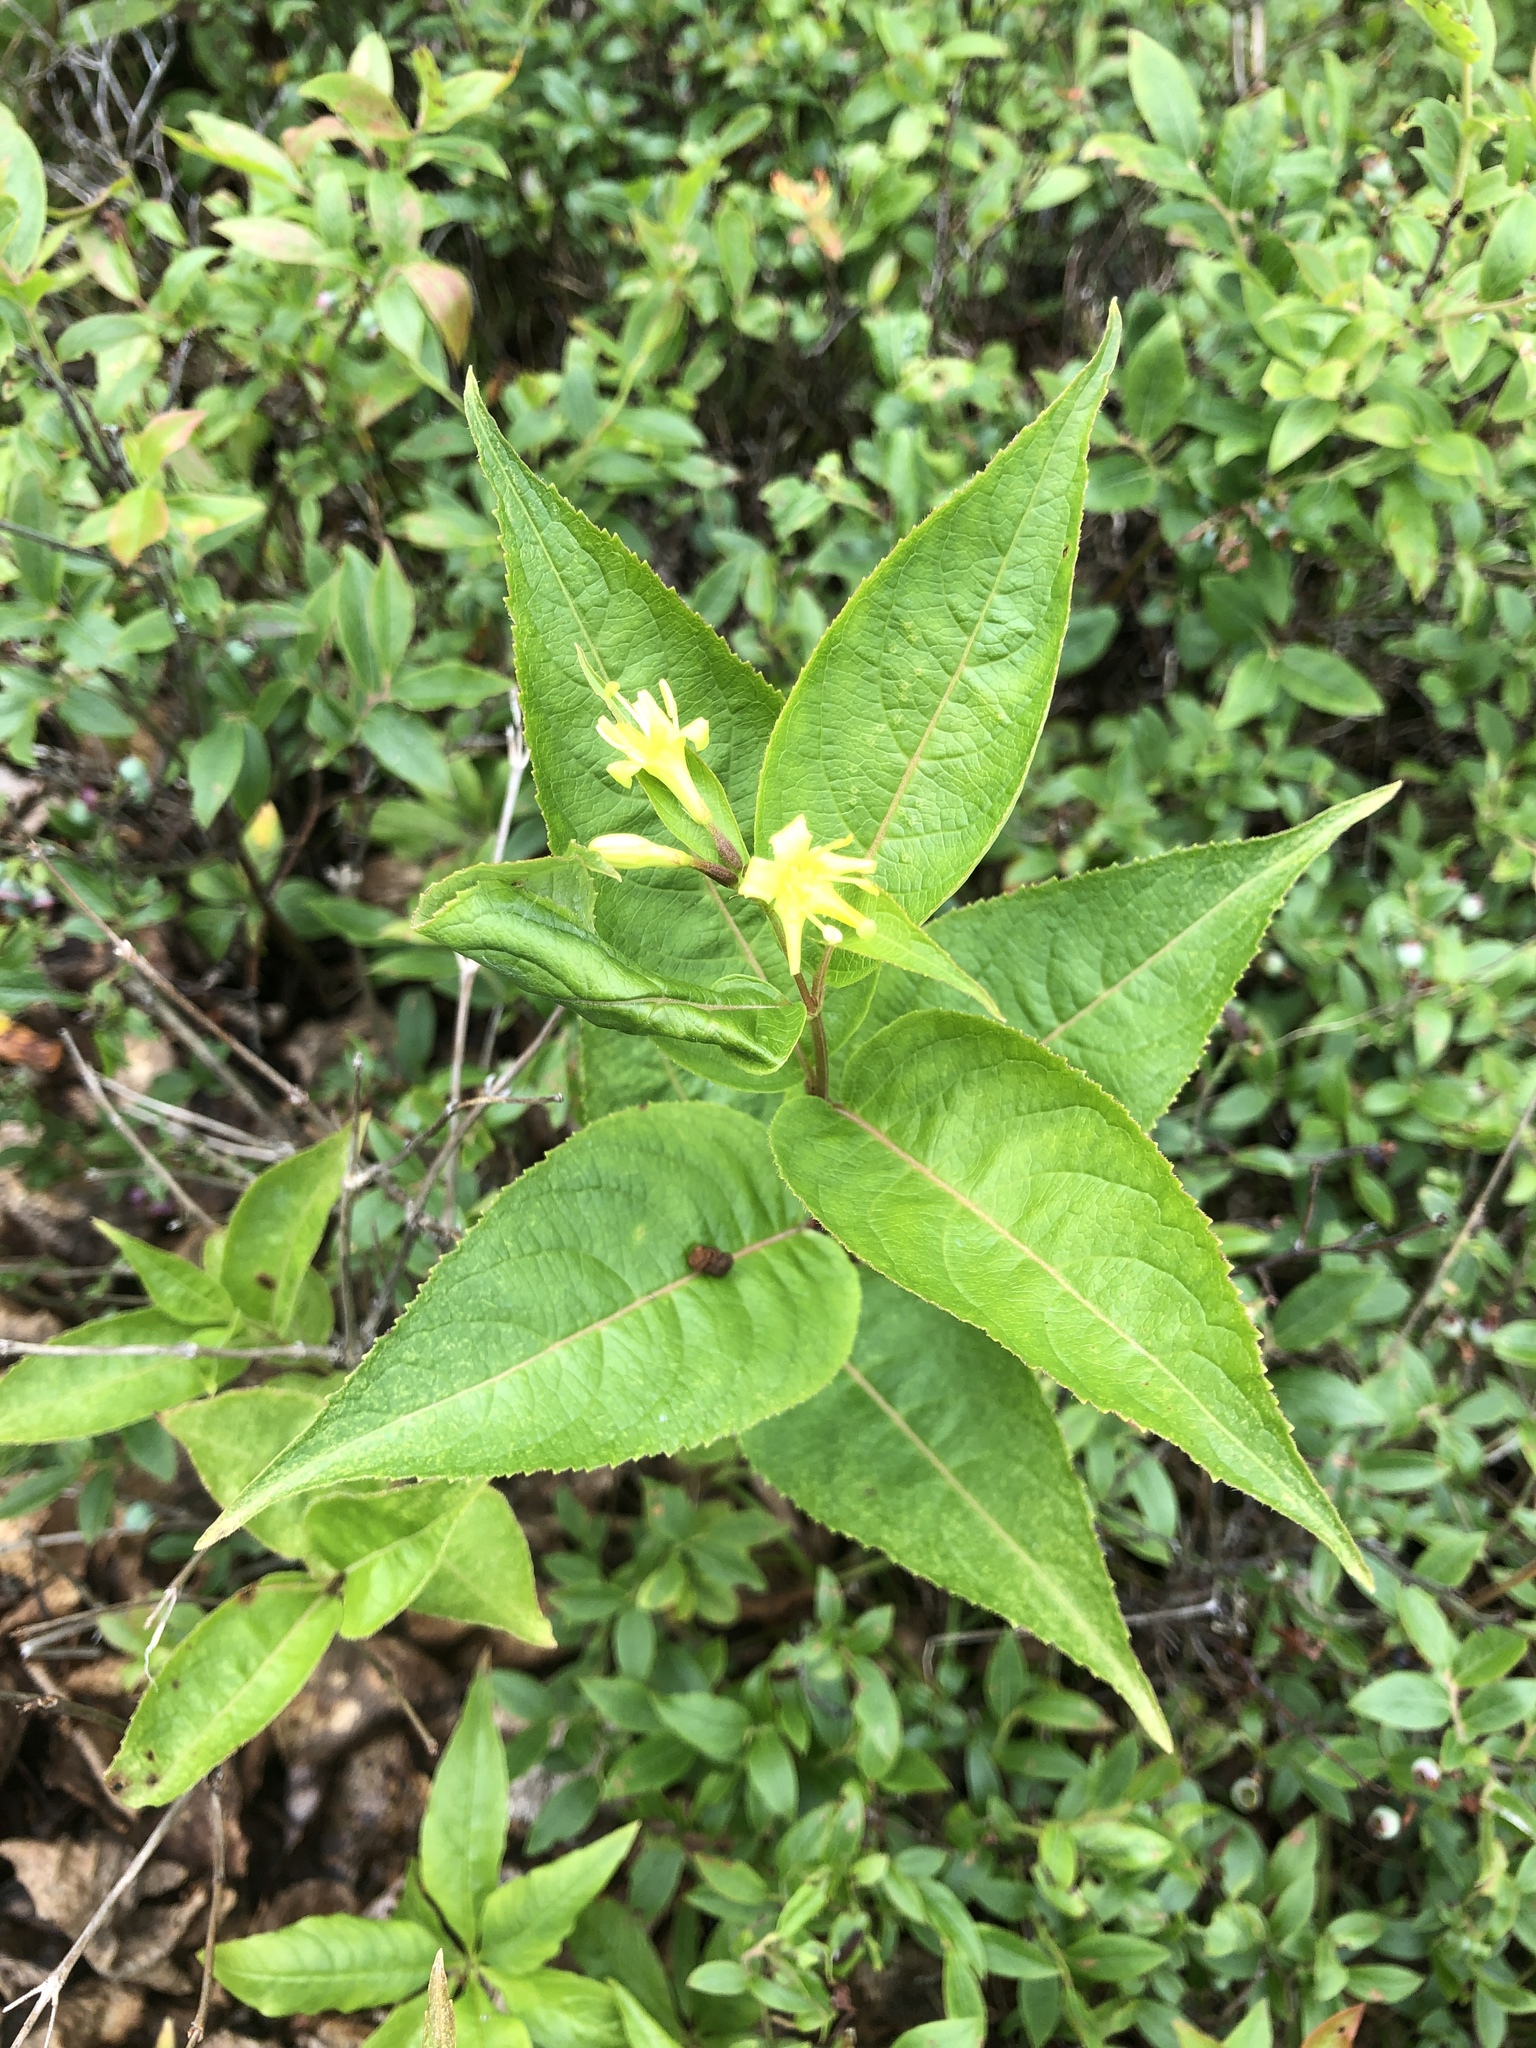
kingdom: Plantae
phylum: Tracheophyta
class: Magnoliopsida
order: Dipsacales
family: Caprifoliaceae
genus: Diervilla
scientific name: Diervilla lonicera
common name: Bush-honeysuckle
